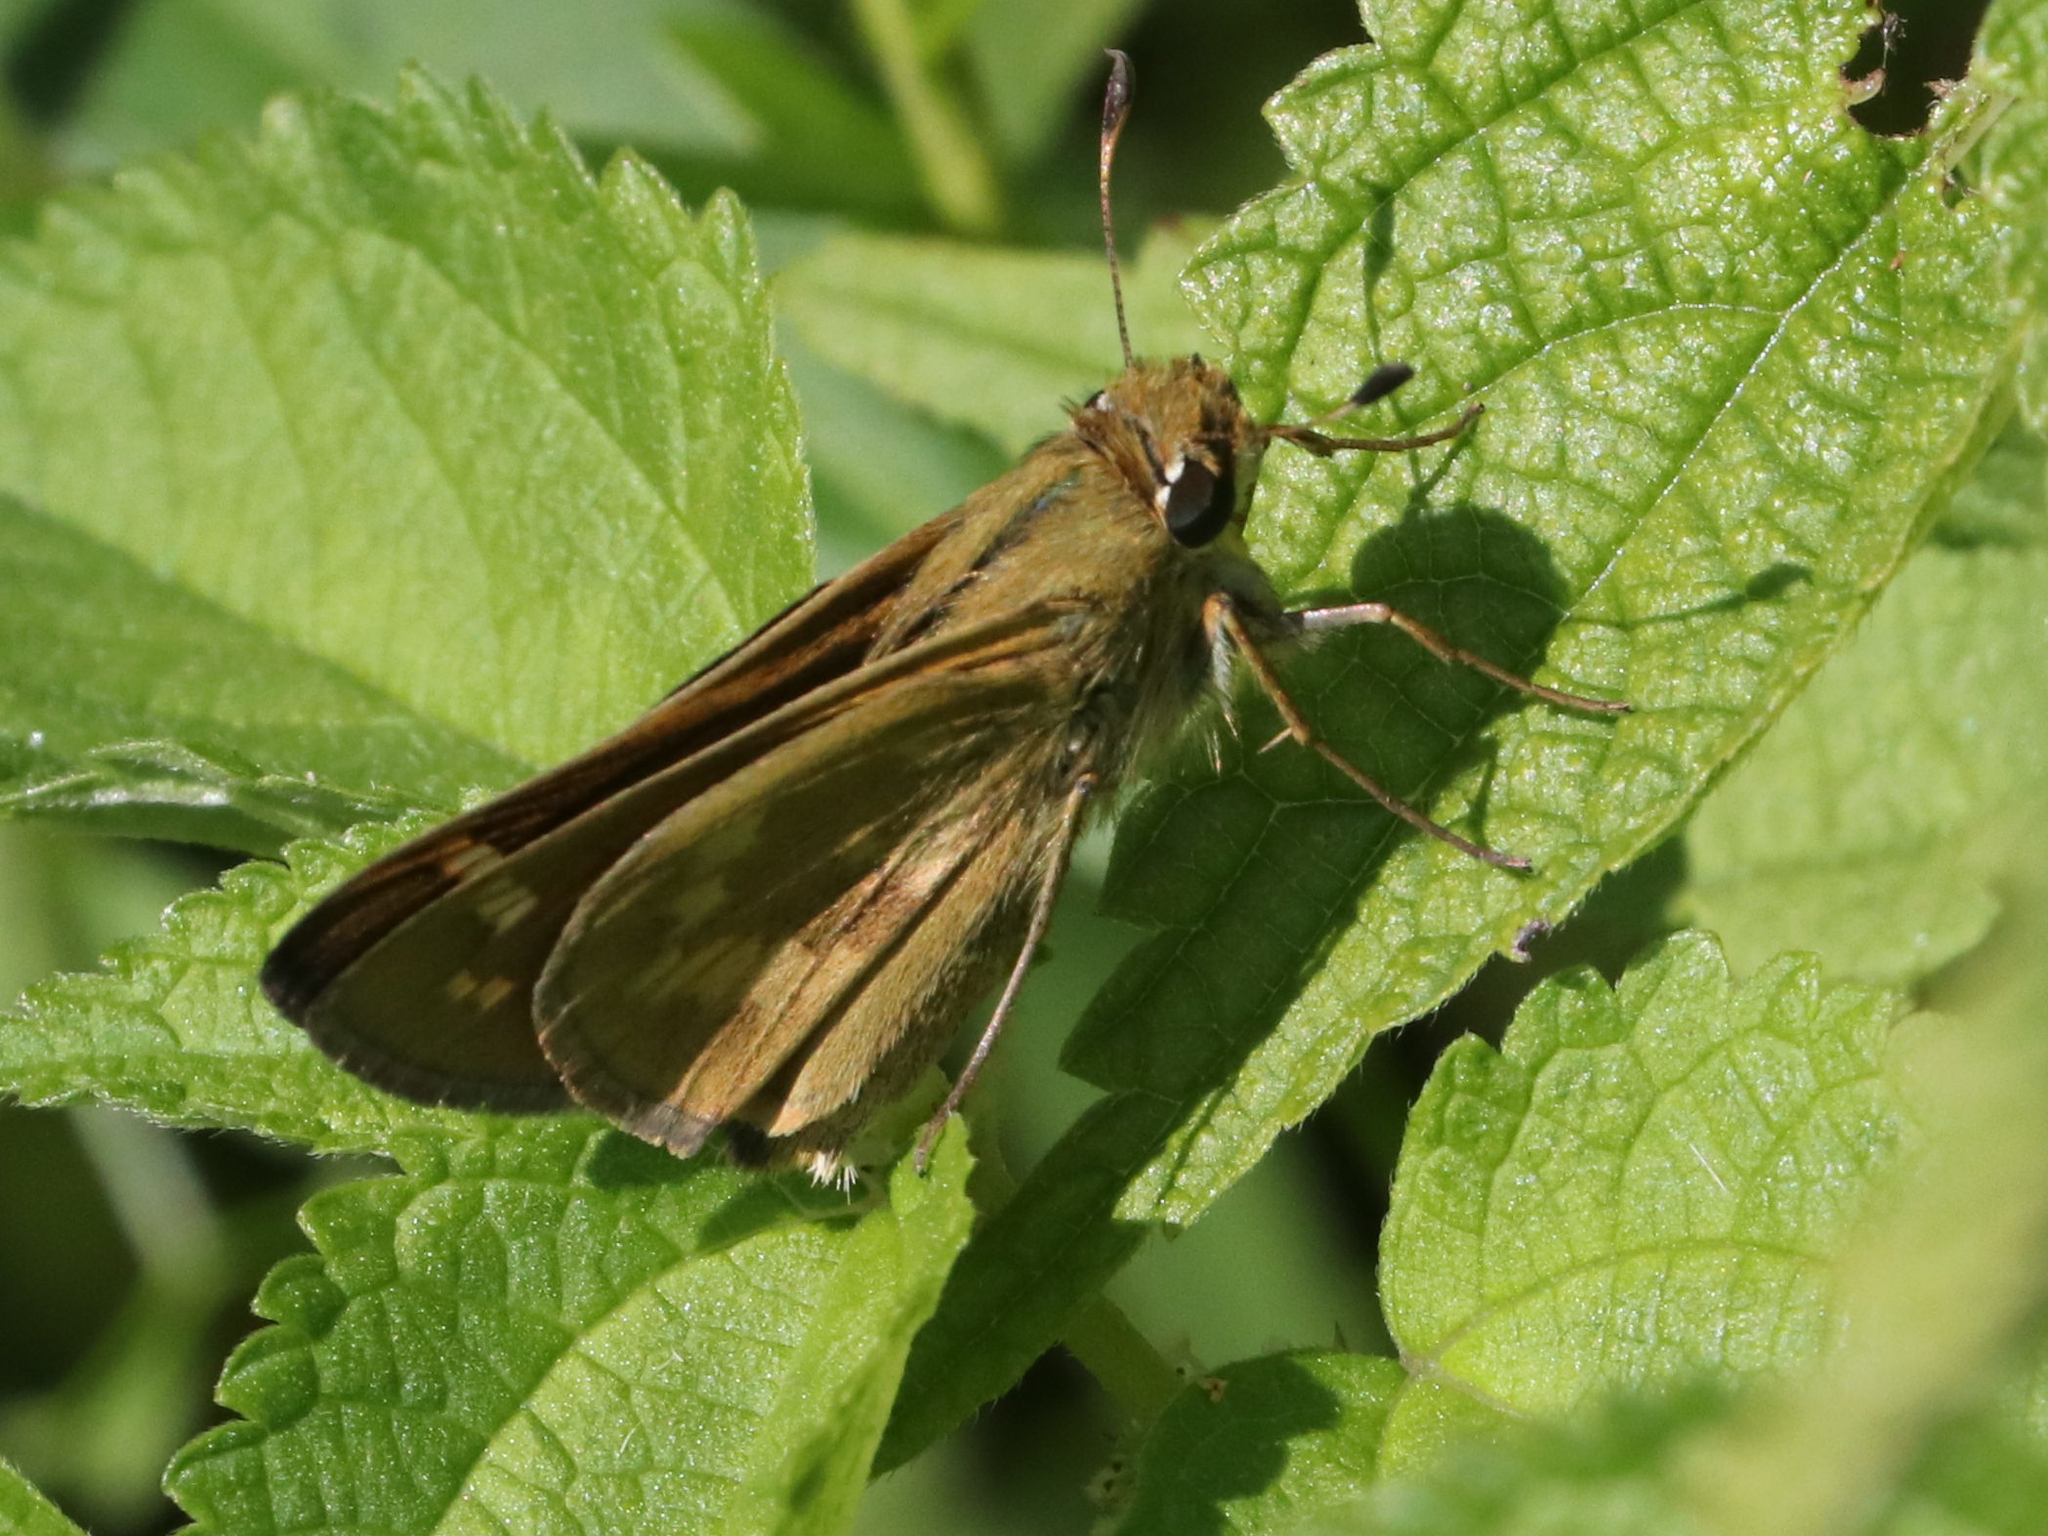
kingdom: Animalia
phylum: Arthropoda
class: Insecta
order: Lepidoptera
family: Hesperiidae
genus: Atalopedes
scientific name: Atalopedes
